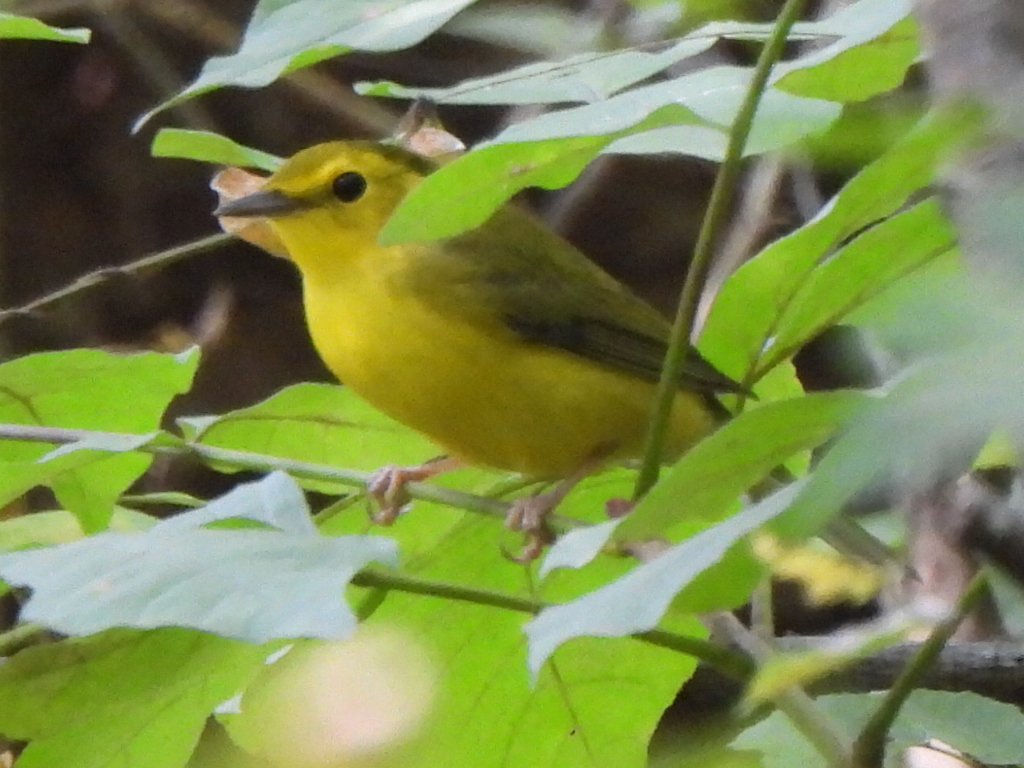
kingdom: Animalia
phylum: Chordata
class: Aves
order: Passeriformes
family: Parulidae
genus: Setophaga
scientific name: Setophaga citrina
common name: Hooded warbler
